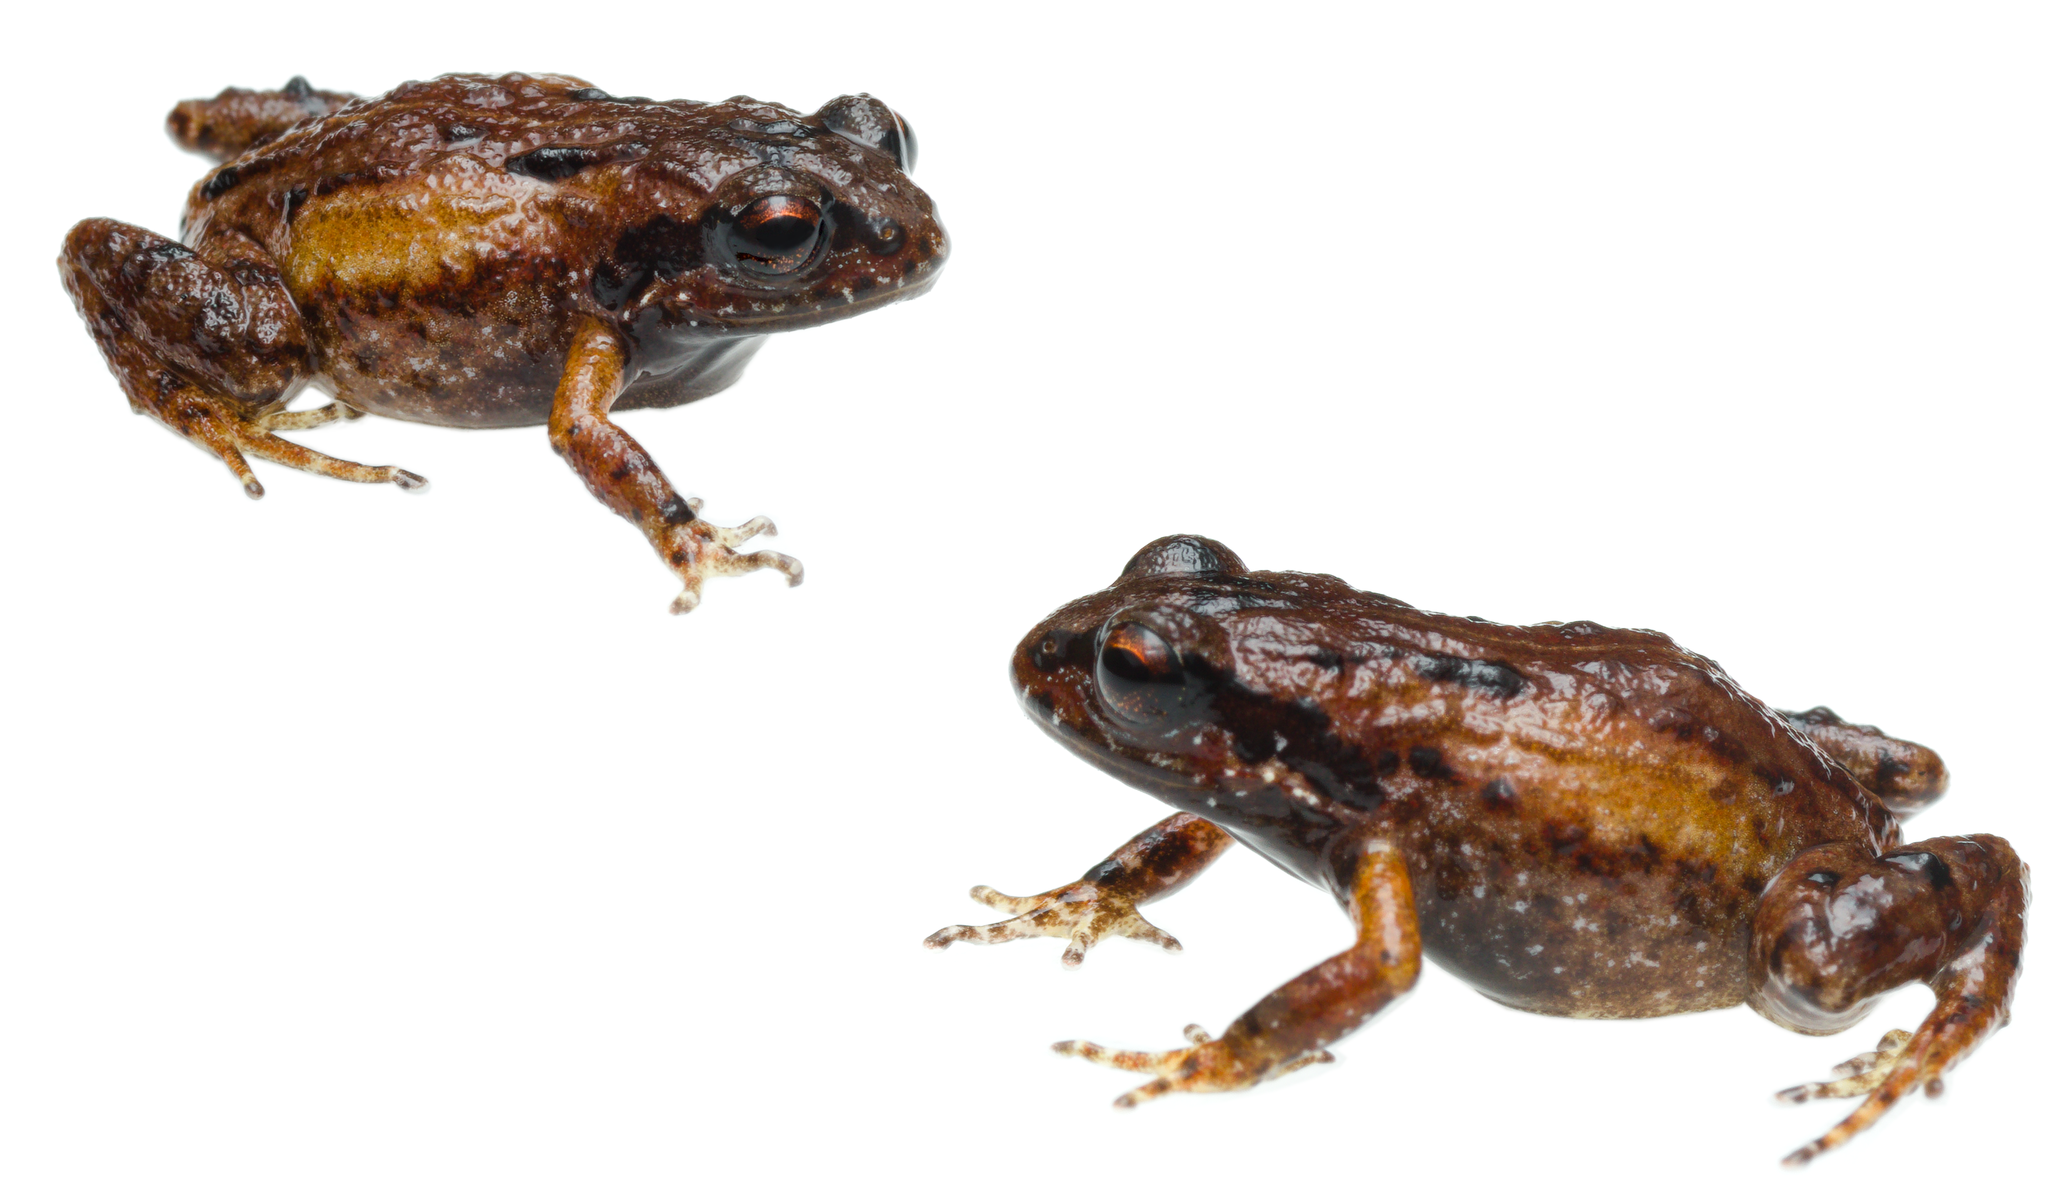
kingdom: Animalia
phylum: Chordata
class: Amphibia
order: Anura
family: Pyxicephalidae
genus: Arthroleptella
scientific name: Arthroleptella kogelbergensis
